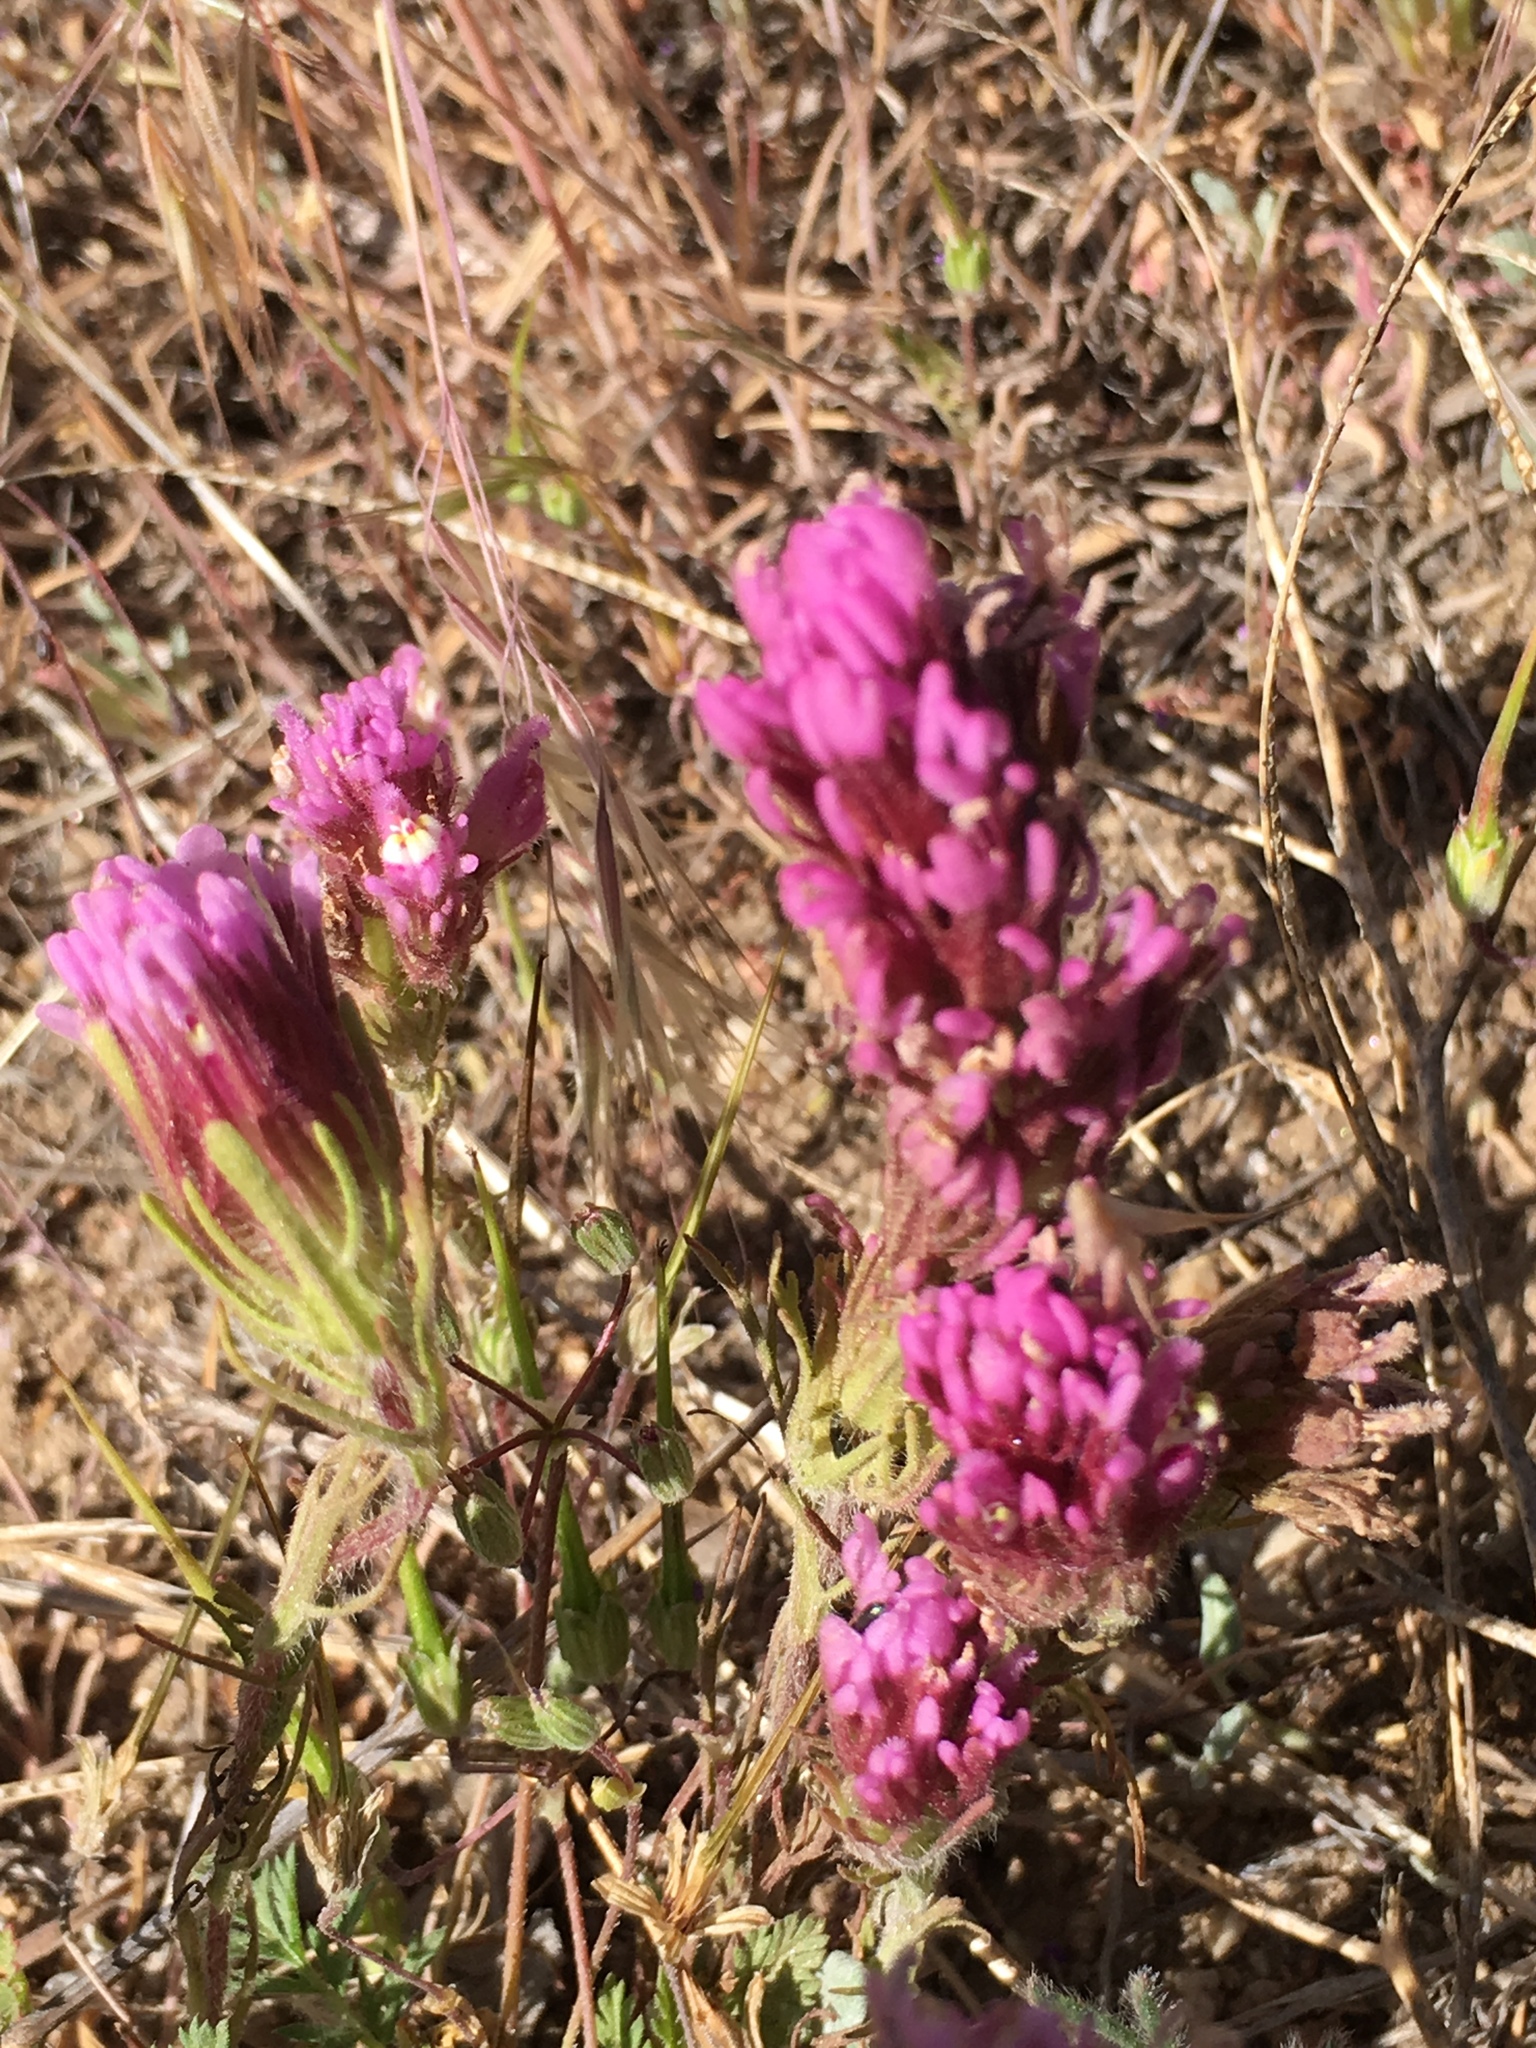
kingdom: Plantae
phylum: Tracheophyta
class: Magnoliopsida
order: Lamiales
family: Orobanchaceae
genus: Castilleja
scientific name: Castilleja exserta
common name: Purple owl-clover
